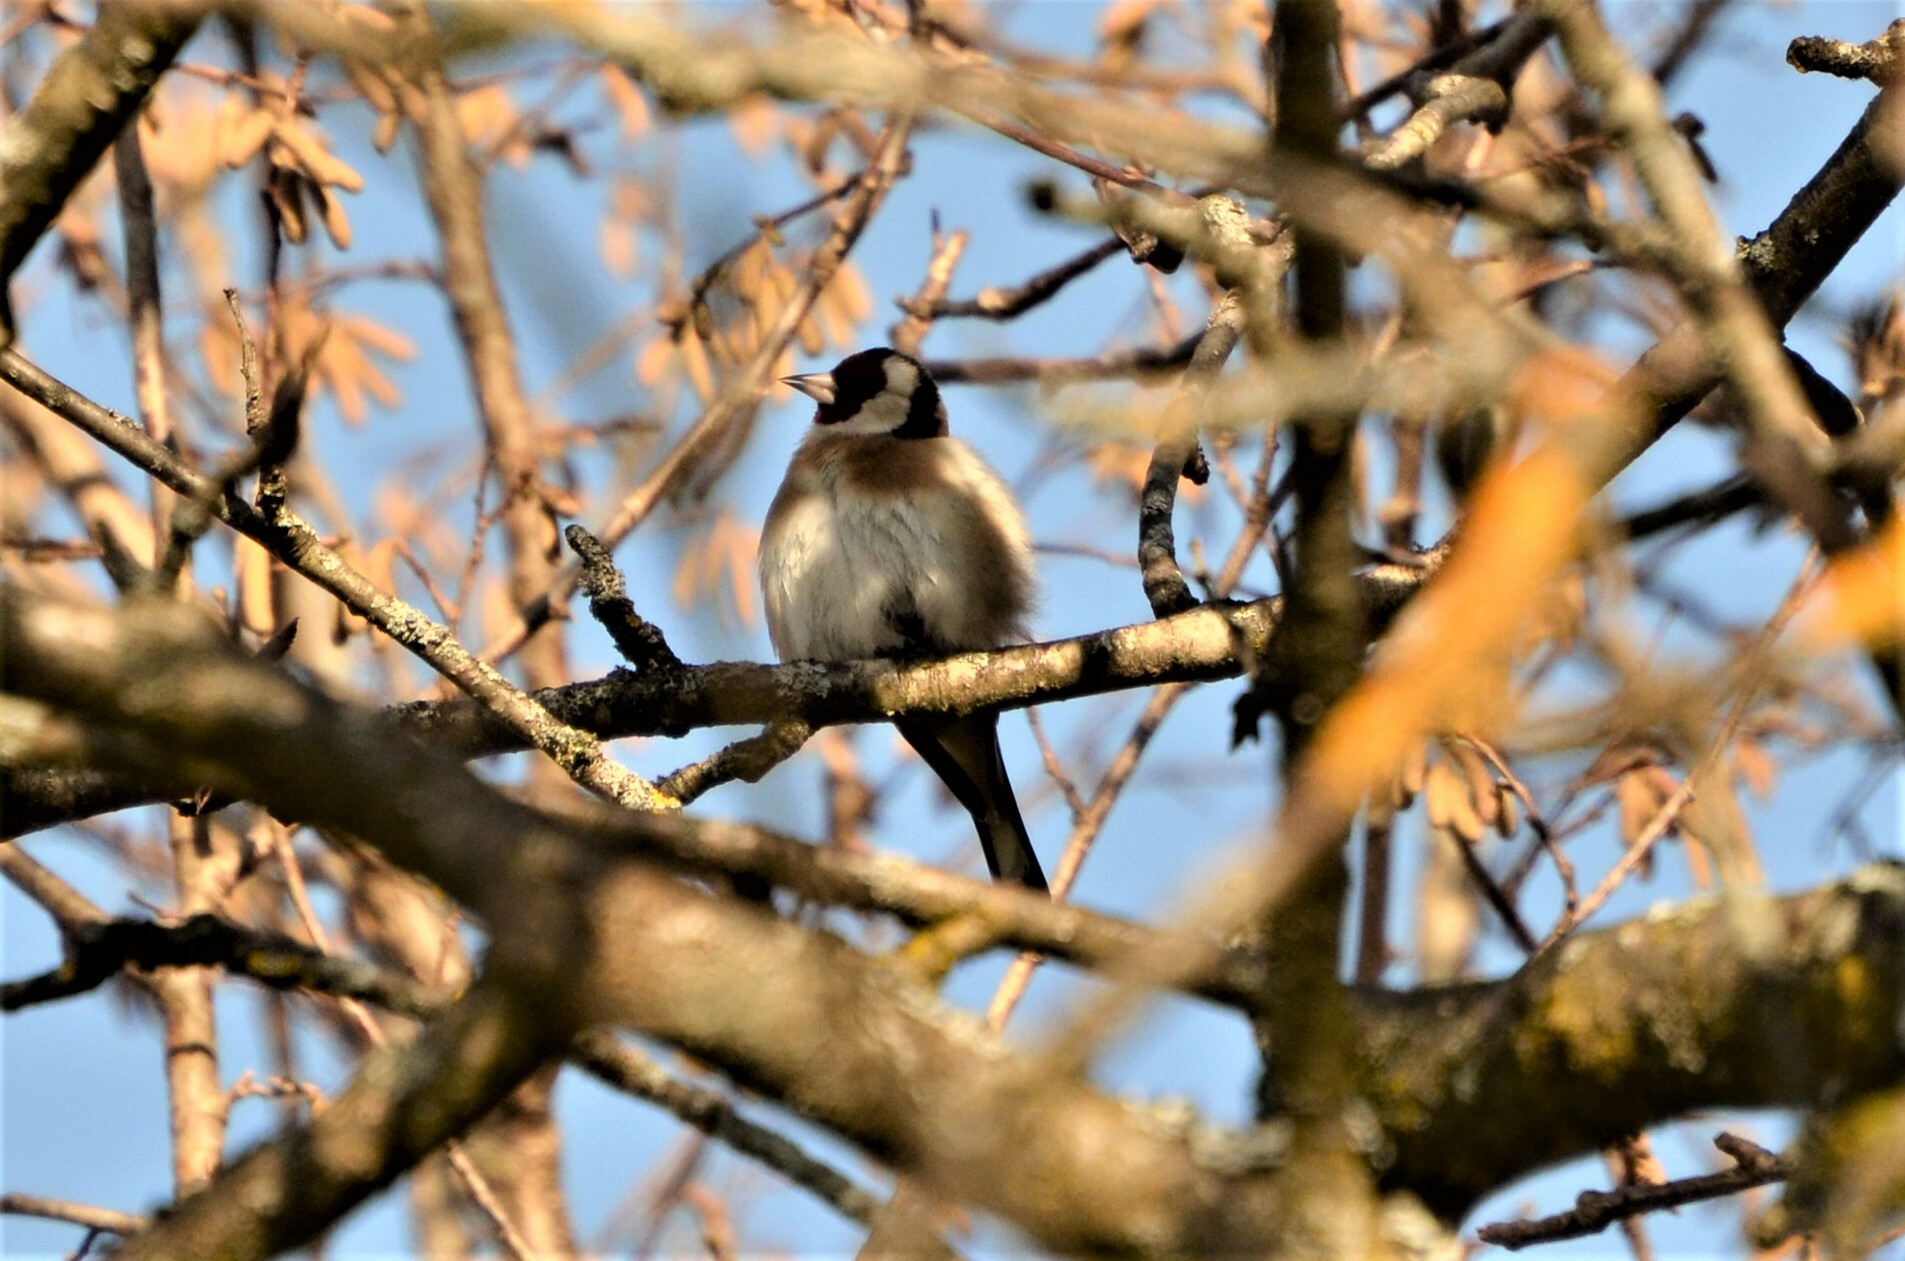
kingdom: Animalia
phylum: Chordata
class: Aves
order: Passeriformes
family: Fringillidae
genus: Carduelis
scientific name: Carduelis carduelis
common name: European goldfinch
